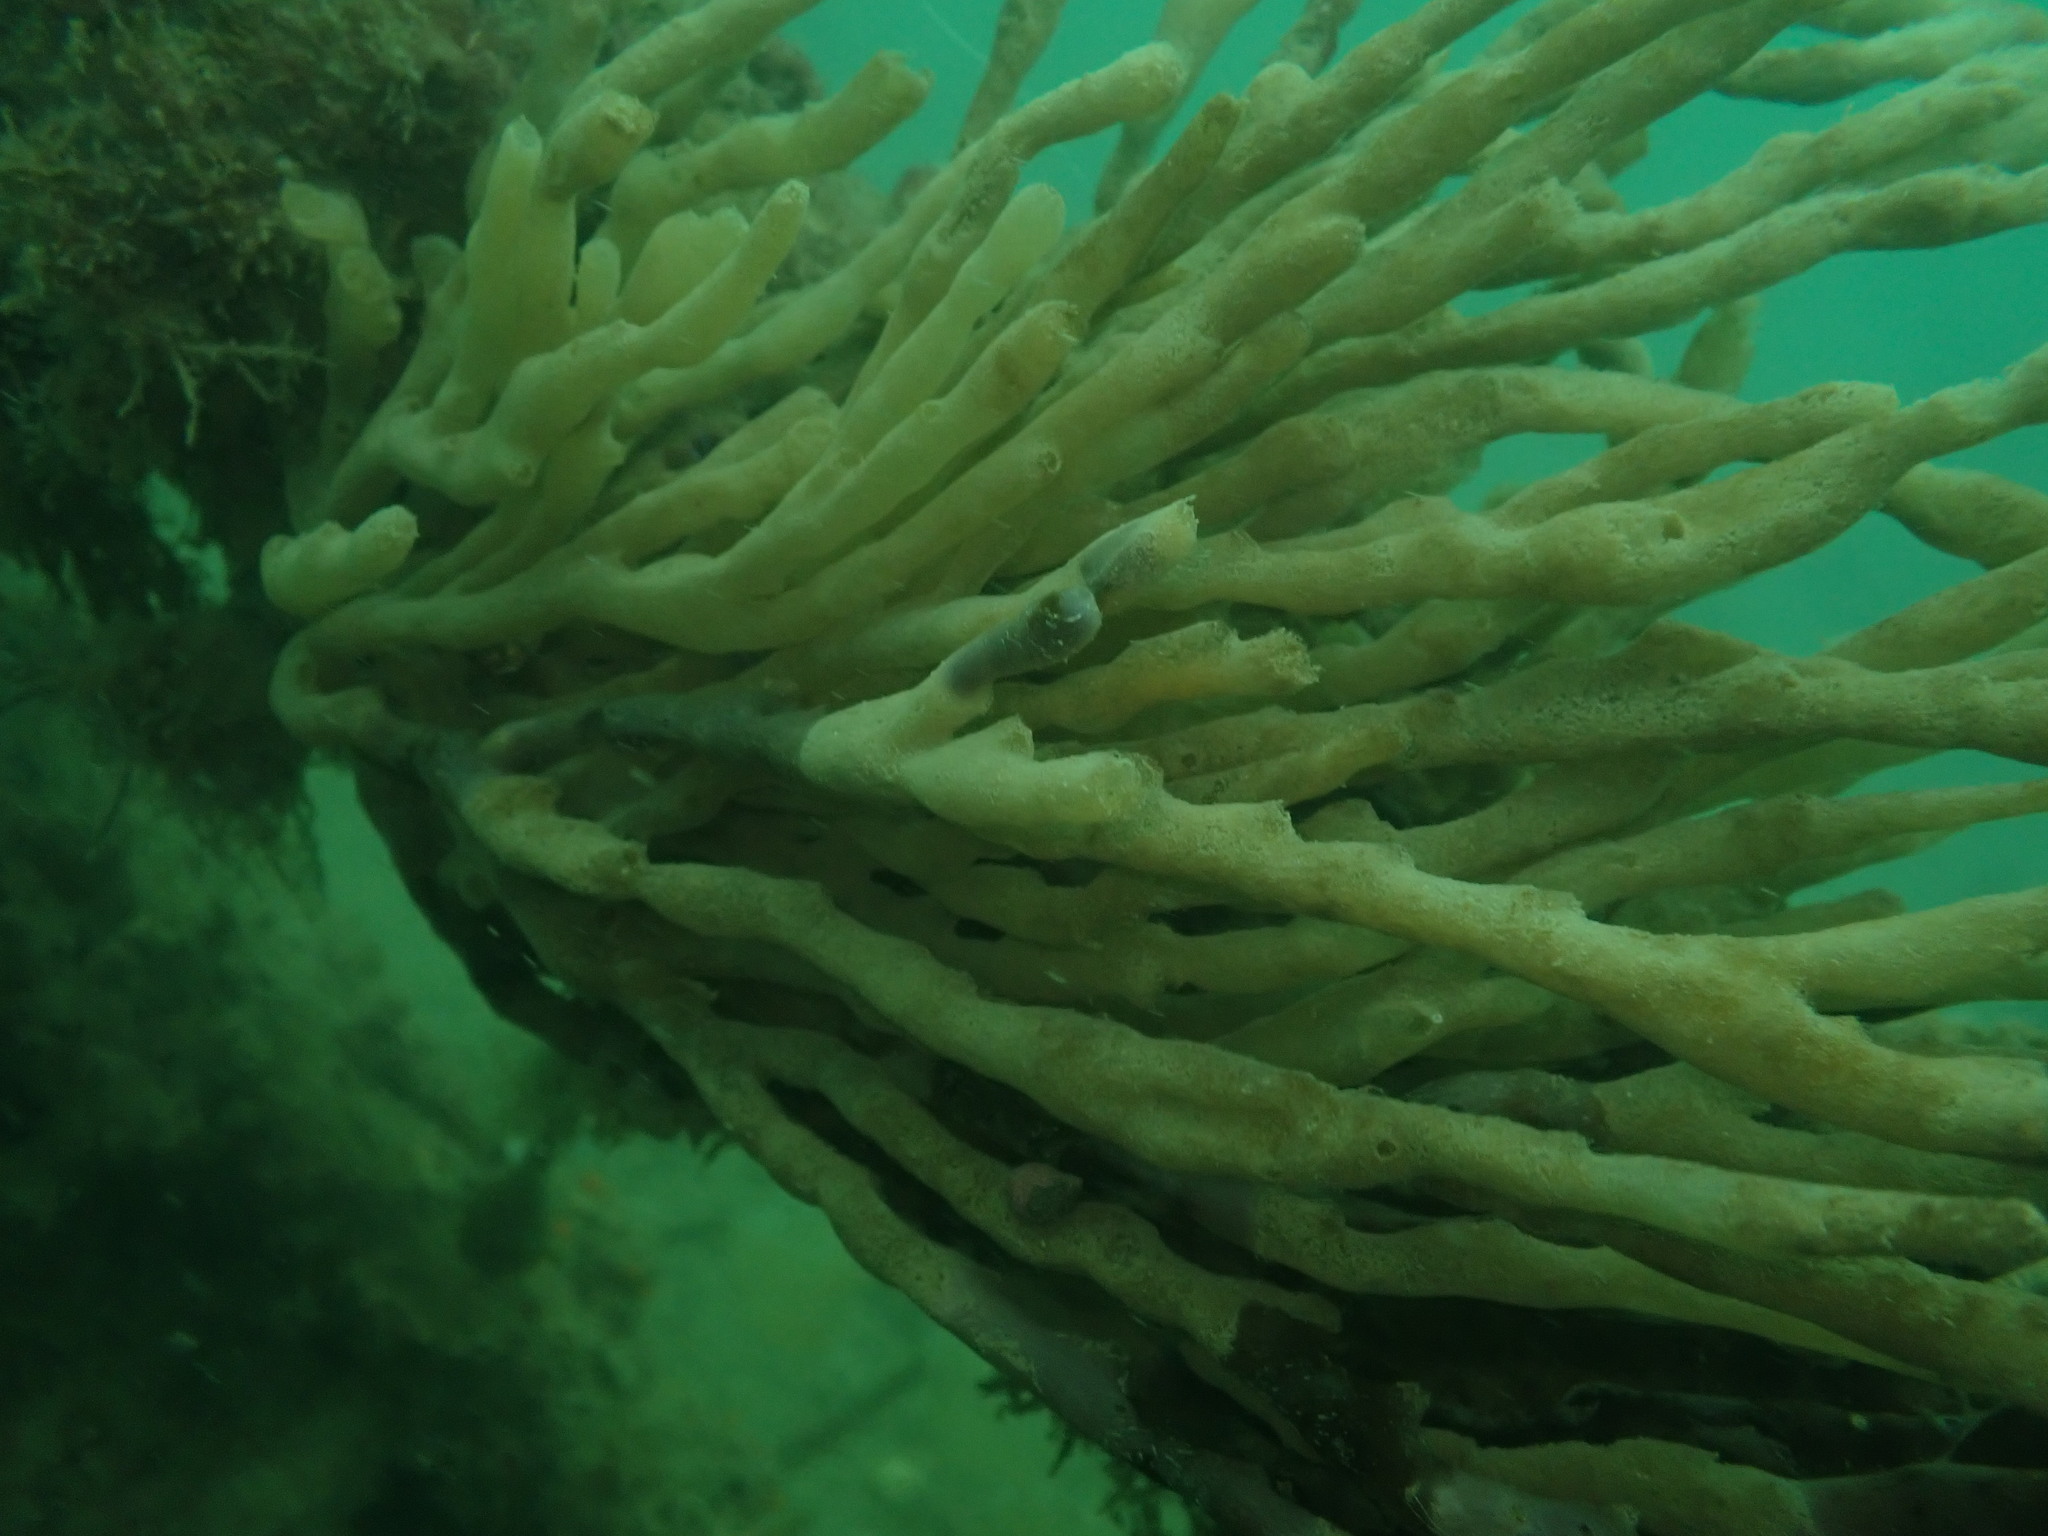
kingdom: Animalia
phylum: Porifera
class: Demospongiae
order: Haplosclerida
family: Callyspongiidae
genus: Callyspongia
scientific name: Callyspongia nuda
